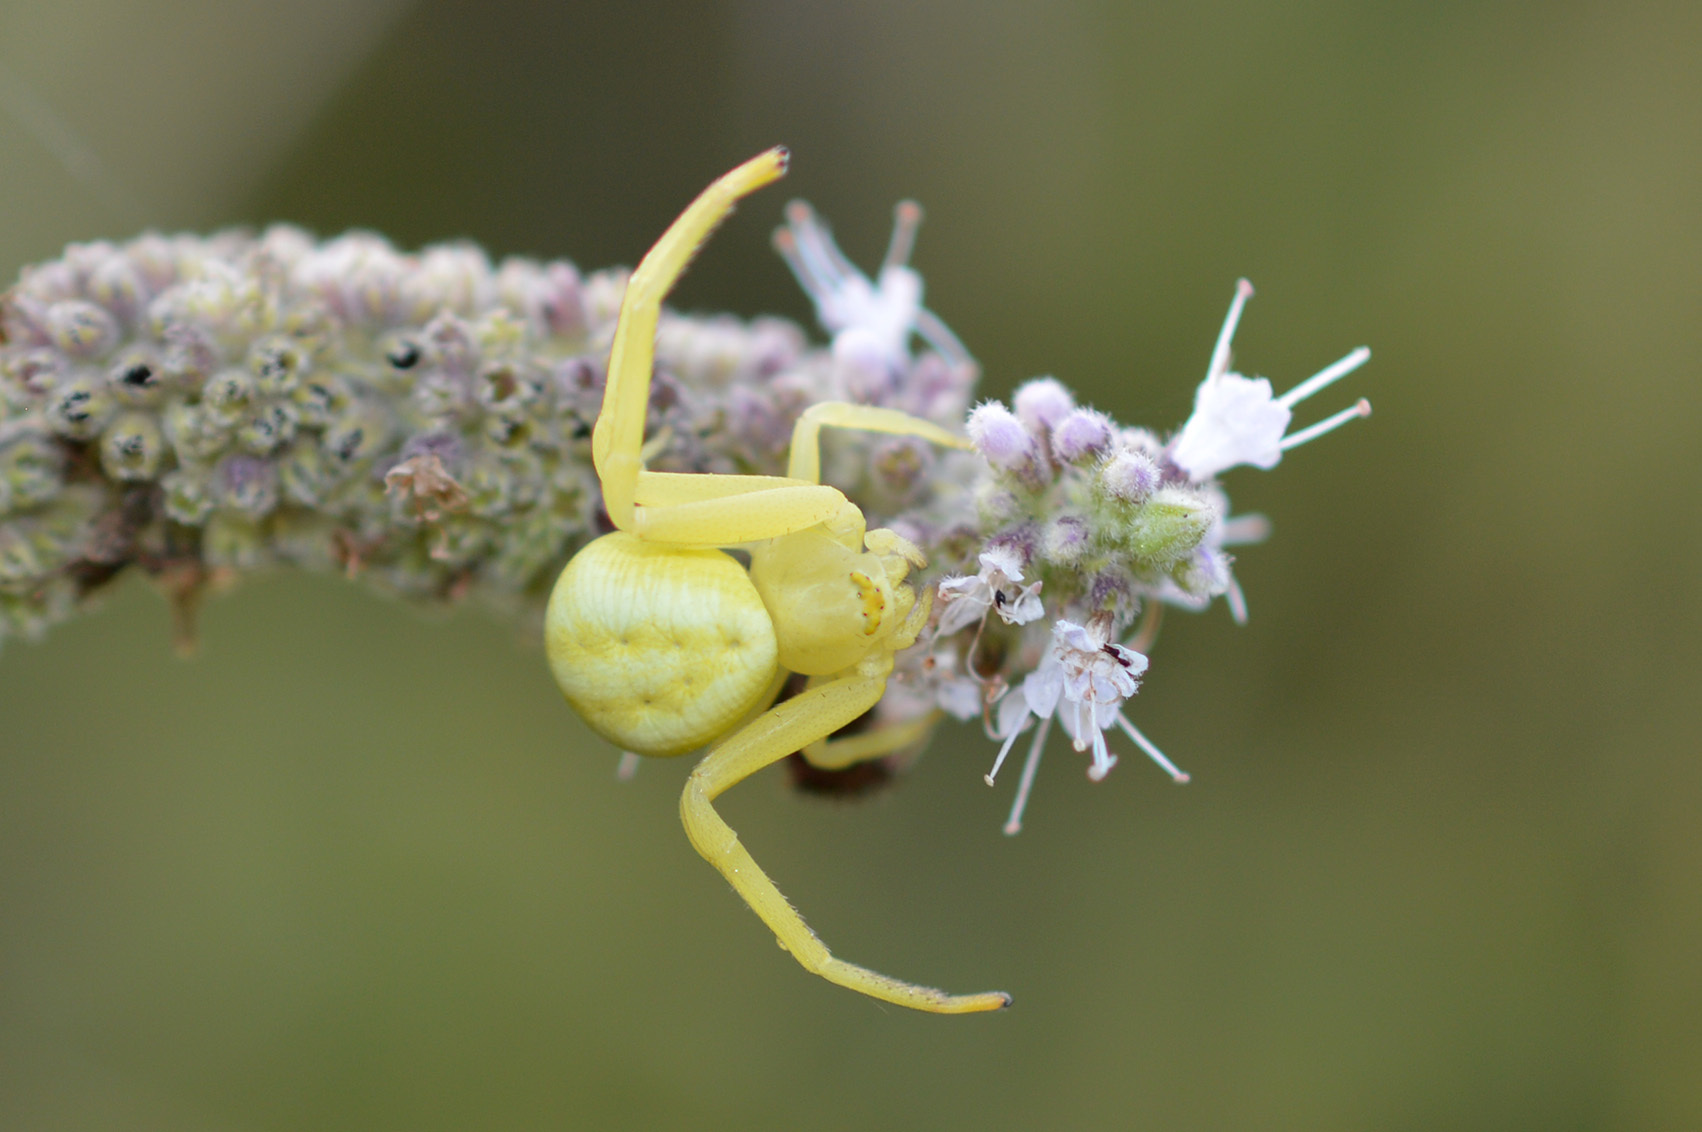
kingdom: Animalia
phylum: Arthropoda
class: Arachnida
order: Araneae
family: Thomisidae
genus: Misumena
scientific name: Misumena vatia
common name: Goldenrod crab spider
